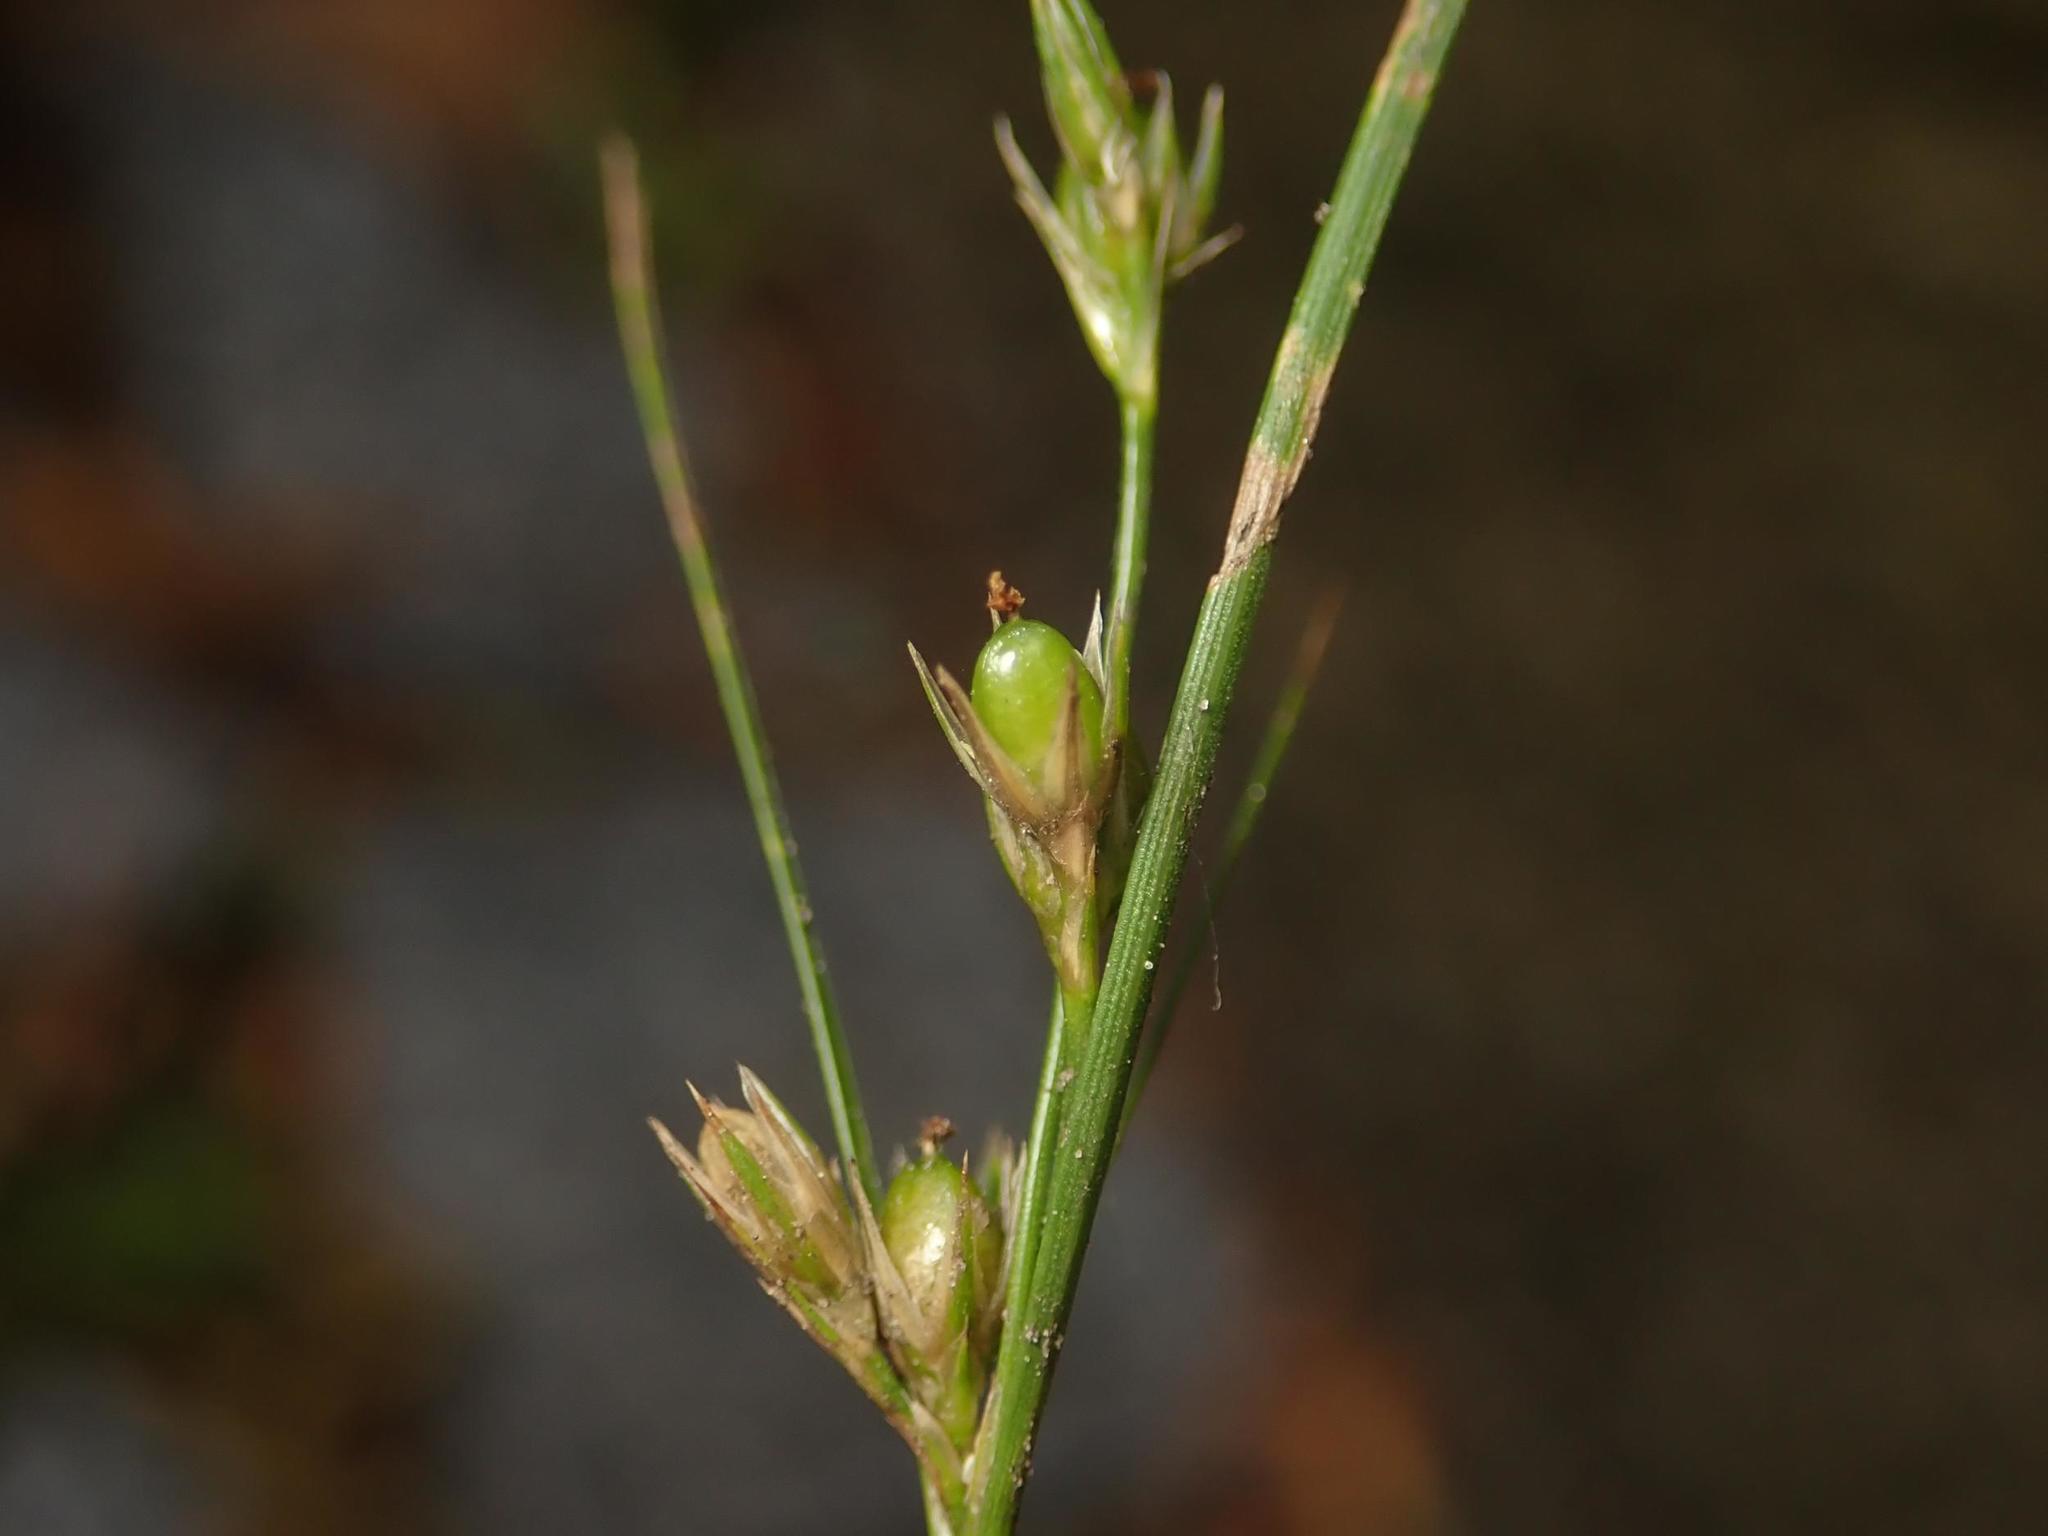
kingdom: Plantae
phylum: Tracheophyta
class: Liliopsida
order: Poales
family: Juncaceae
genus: Juncus
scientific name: Juncus tenuis
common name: Slender rush
